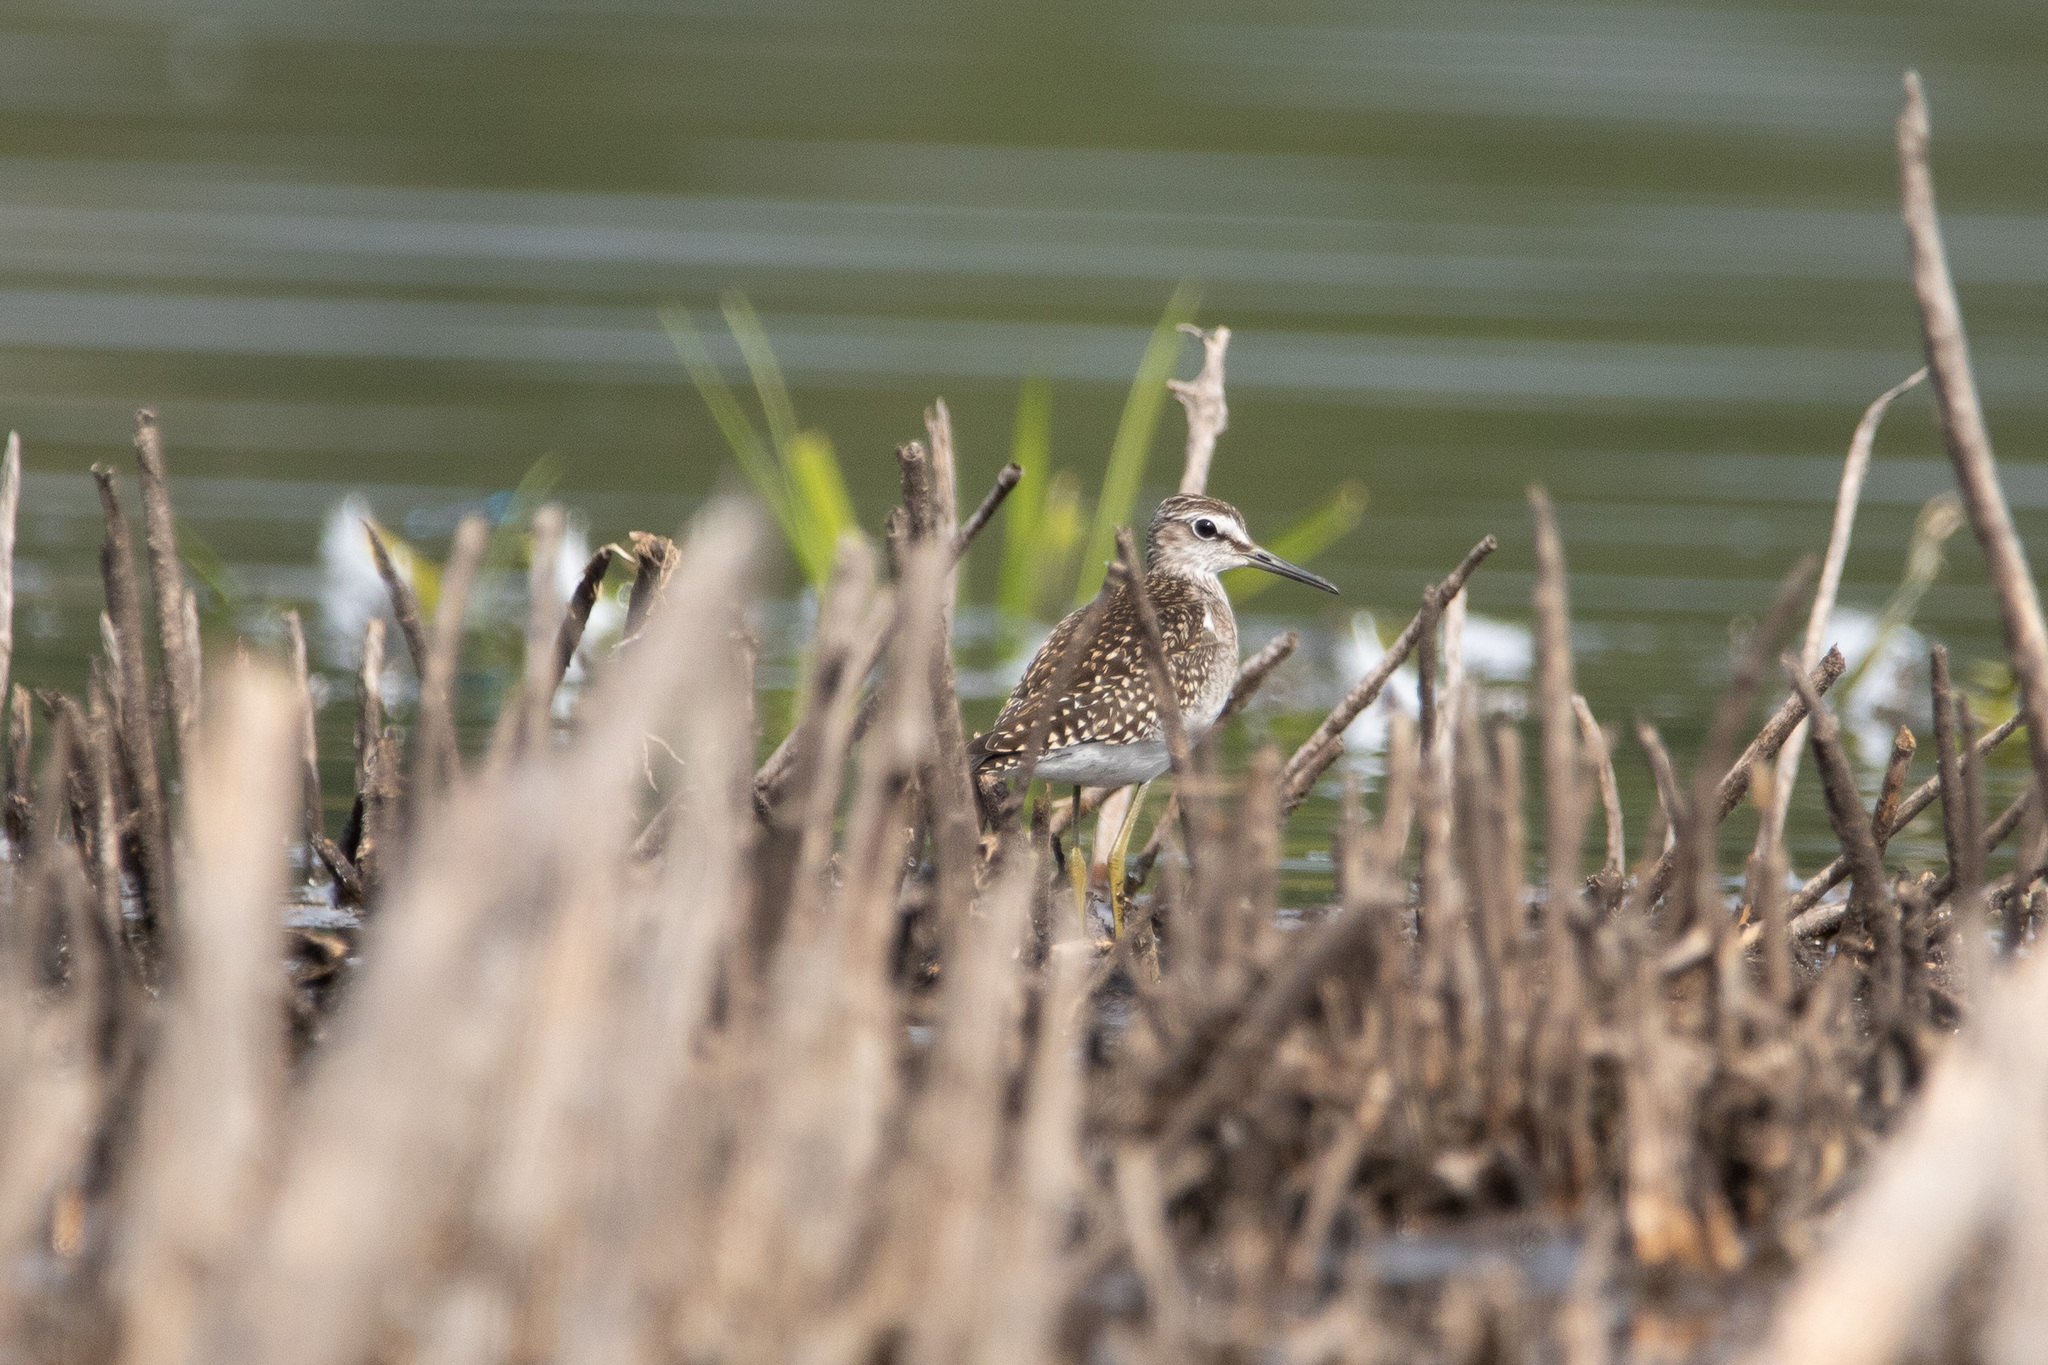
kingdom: Animalia
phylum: Chordata
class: Aves
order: Charadriiformes
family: Scolopacidae
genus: Tringa
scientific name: Tringa glareola
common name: Wood sandpiper
